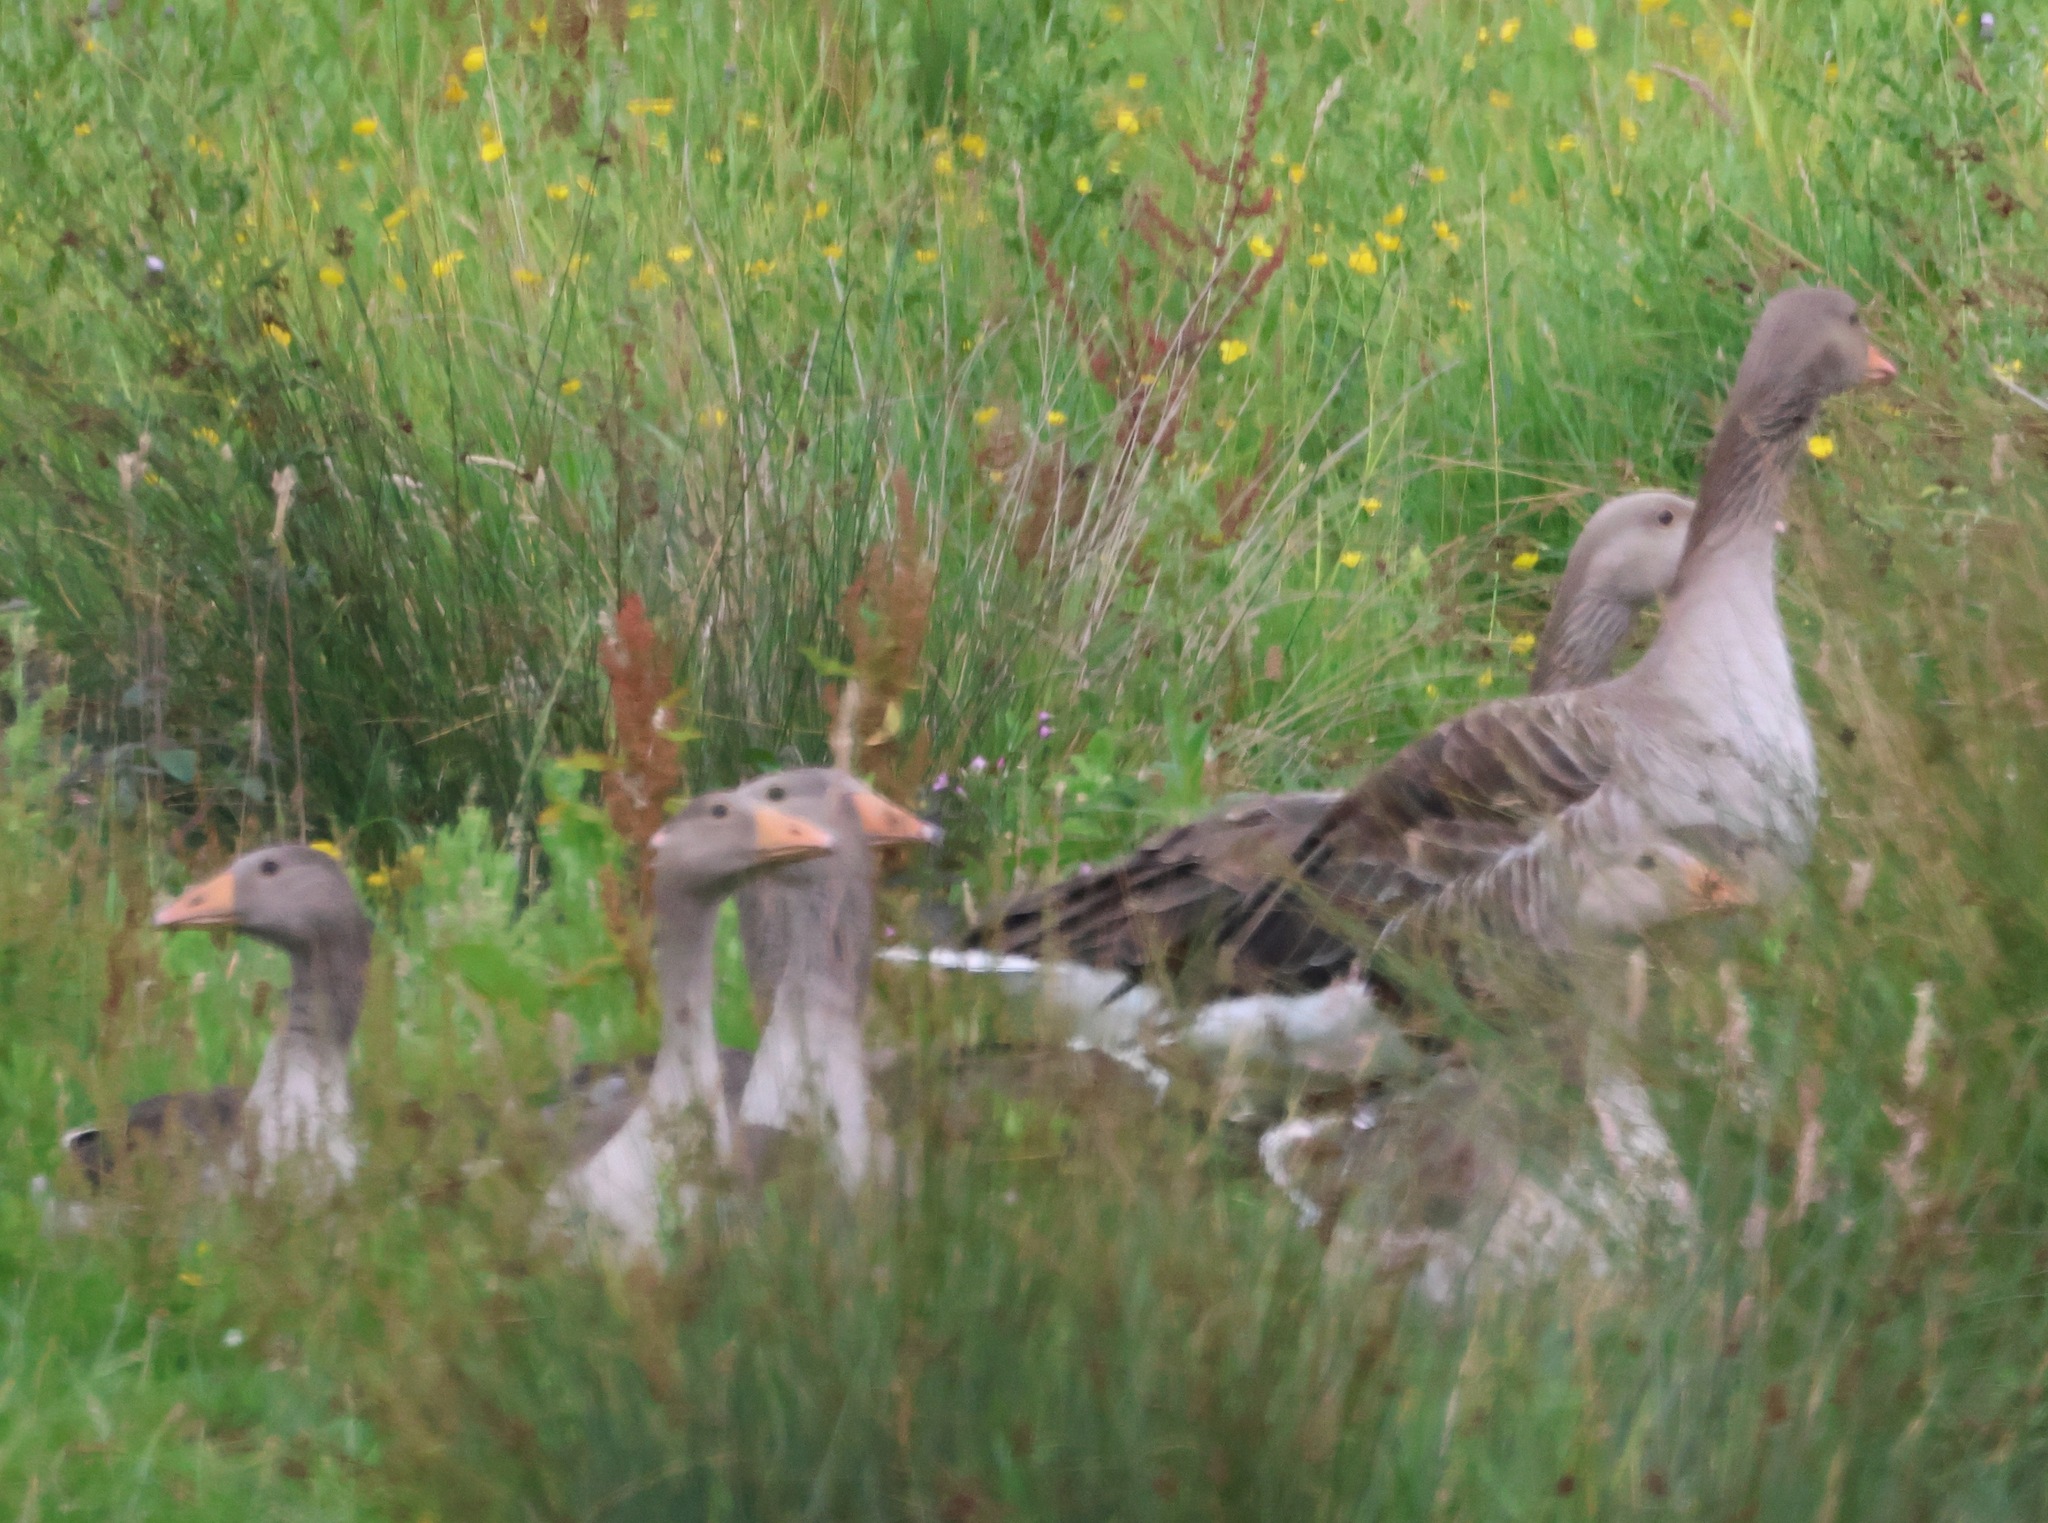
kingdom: Animalia
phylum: Chordata
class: Aves
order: Anseriformes
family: Anatidae
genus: Anser
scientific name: Anser anser
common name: Greylag goose
